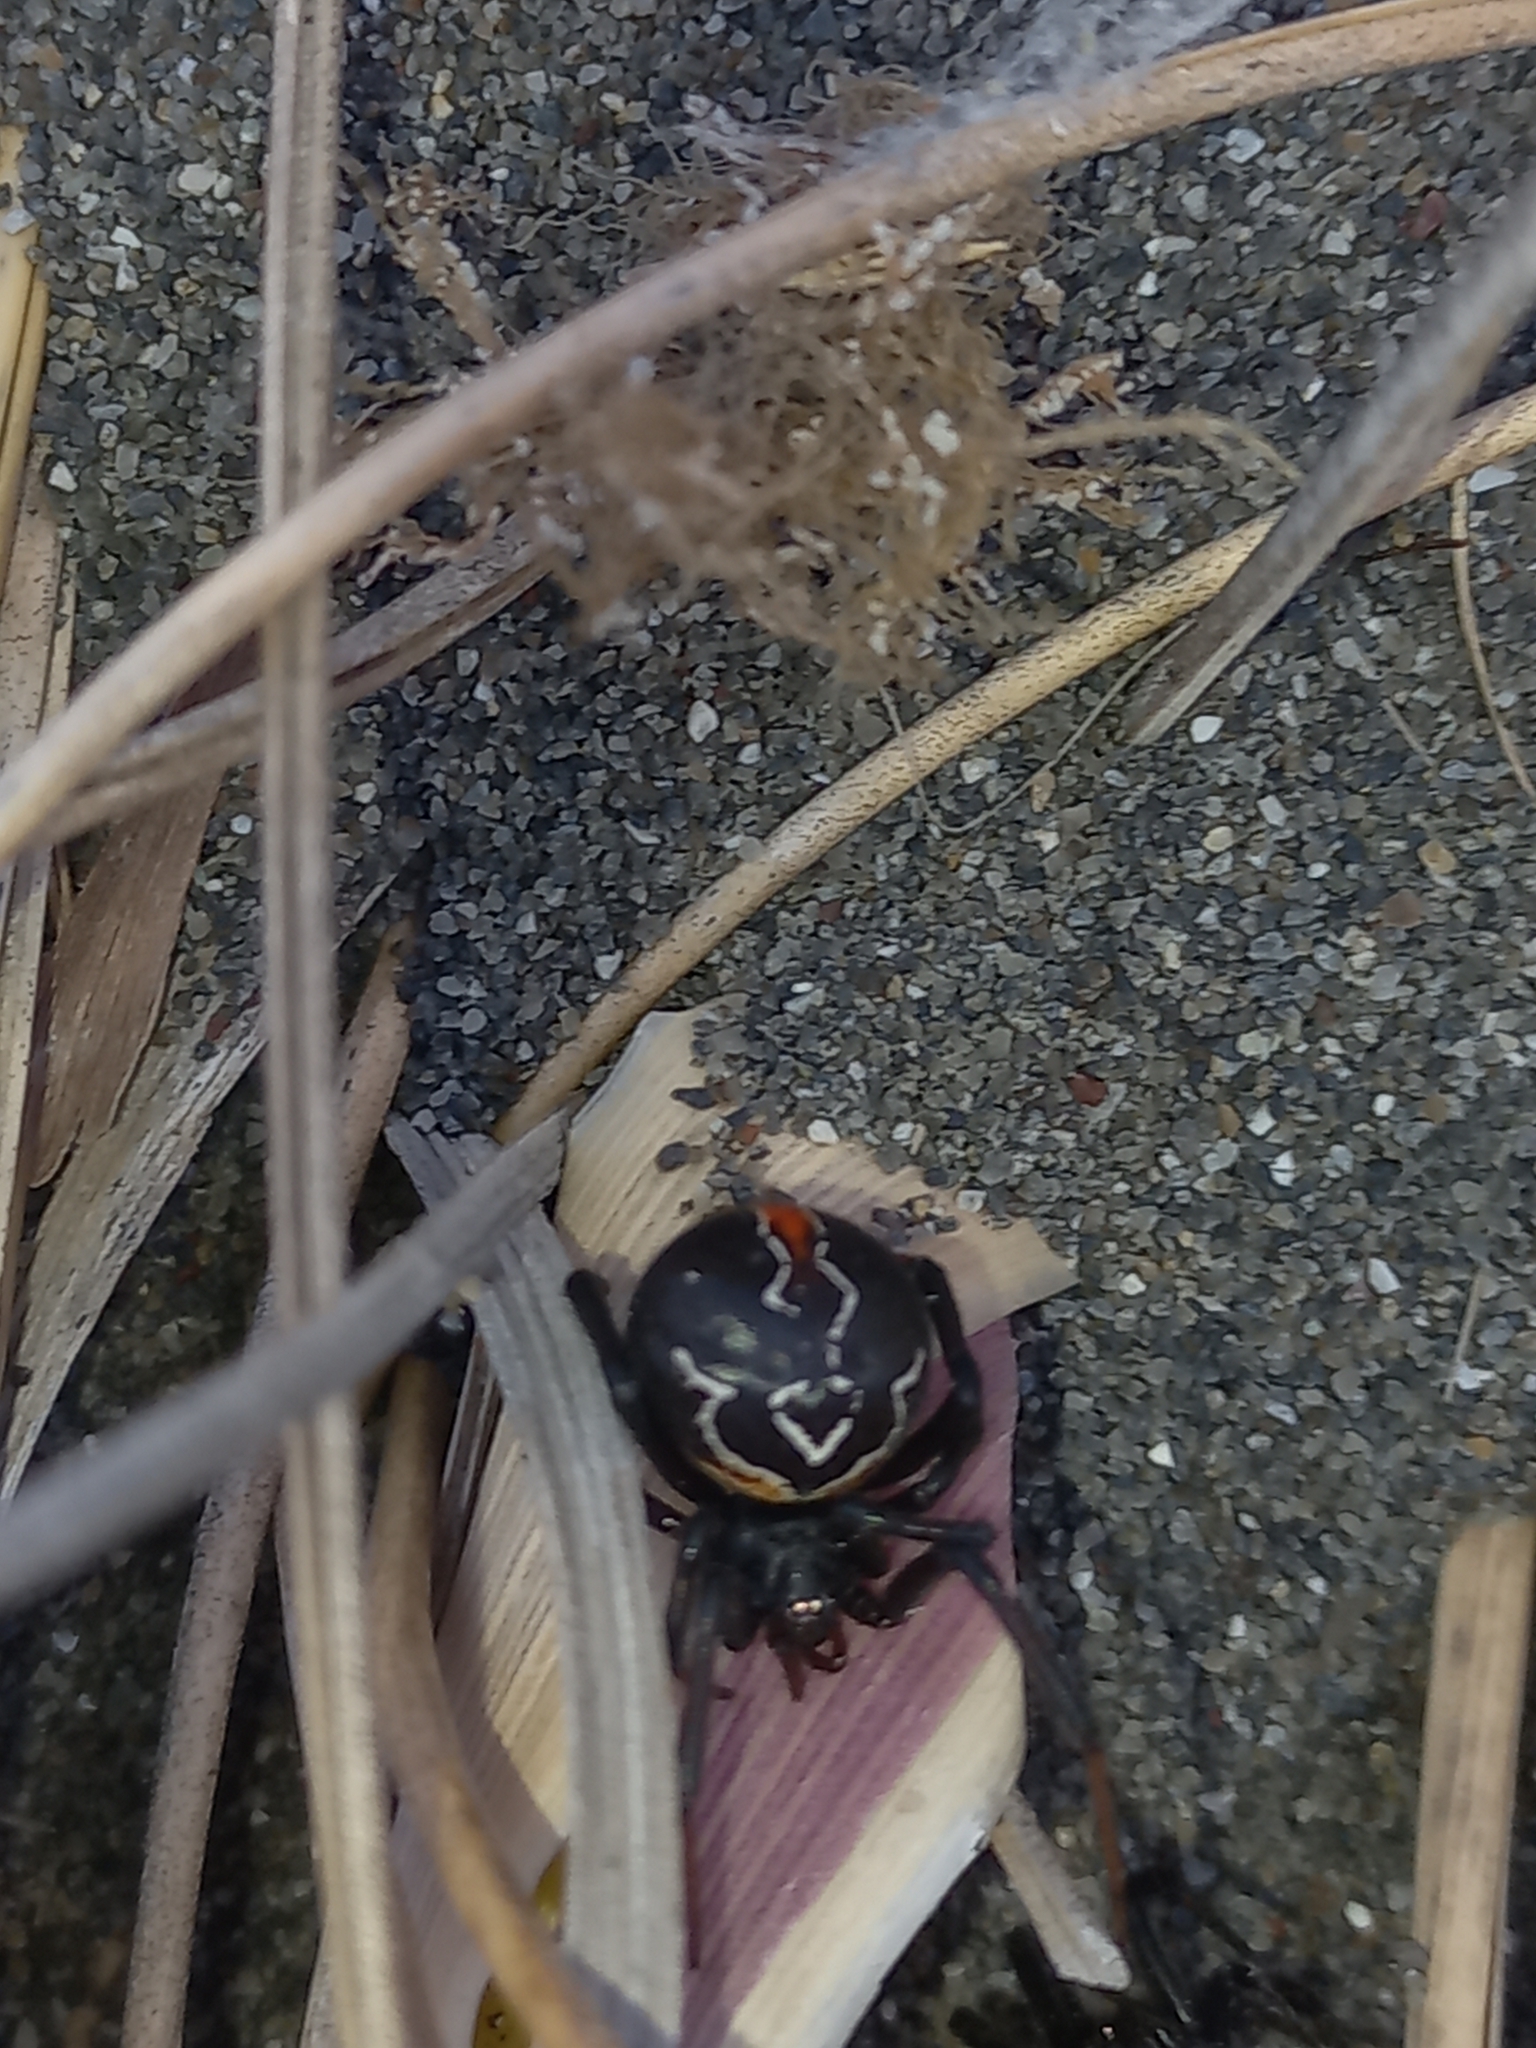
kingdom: Animalia
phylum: Arthropoda
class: Arachnida
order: Araneae
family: Theridiidae
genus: Latrodectus
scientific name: Latrodectus katipo
